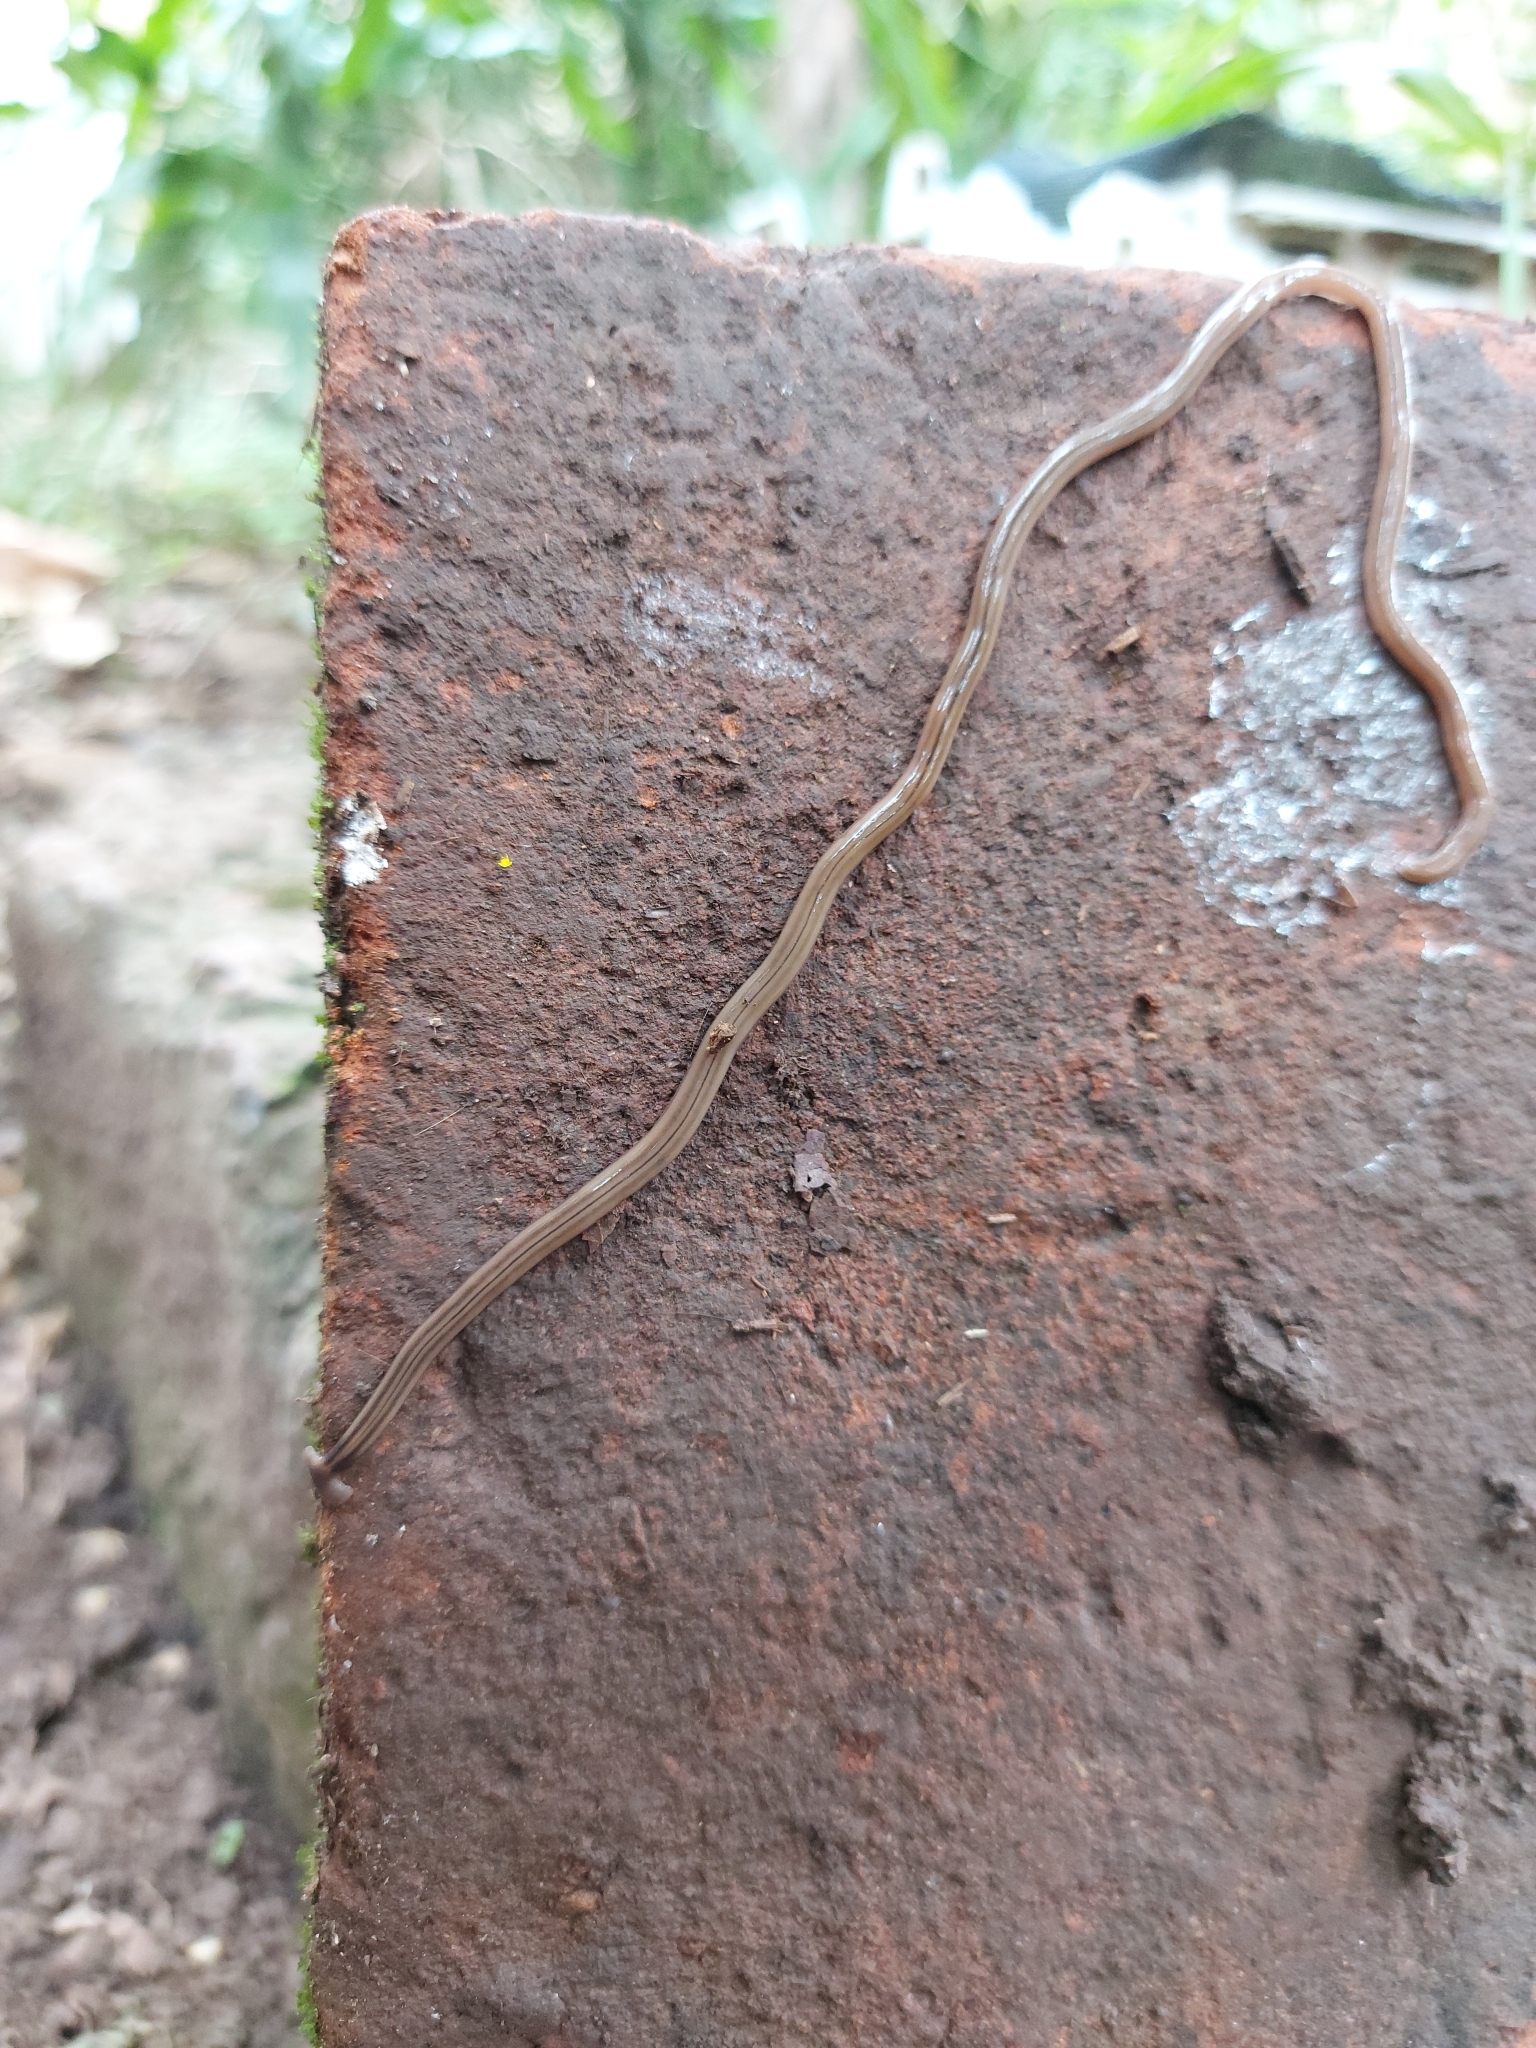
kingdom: Animalia
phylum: Platyhelminthes
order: Tricladida
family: Geoplanidae
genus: Bipalium
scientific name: Bipalium kewense
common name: Hammerhead flatworm
